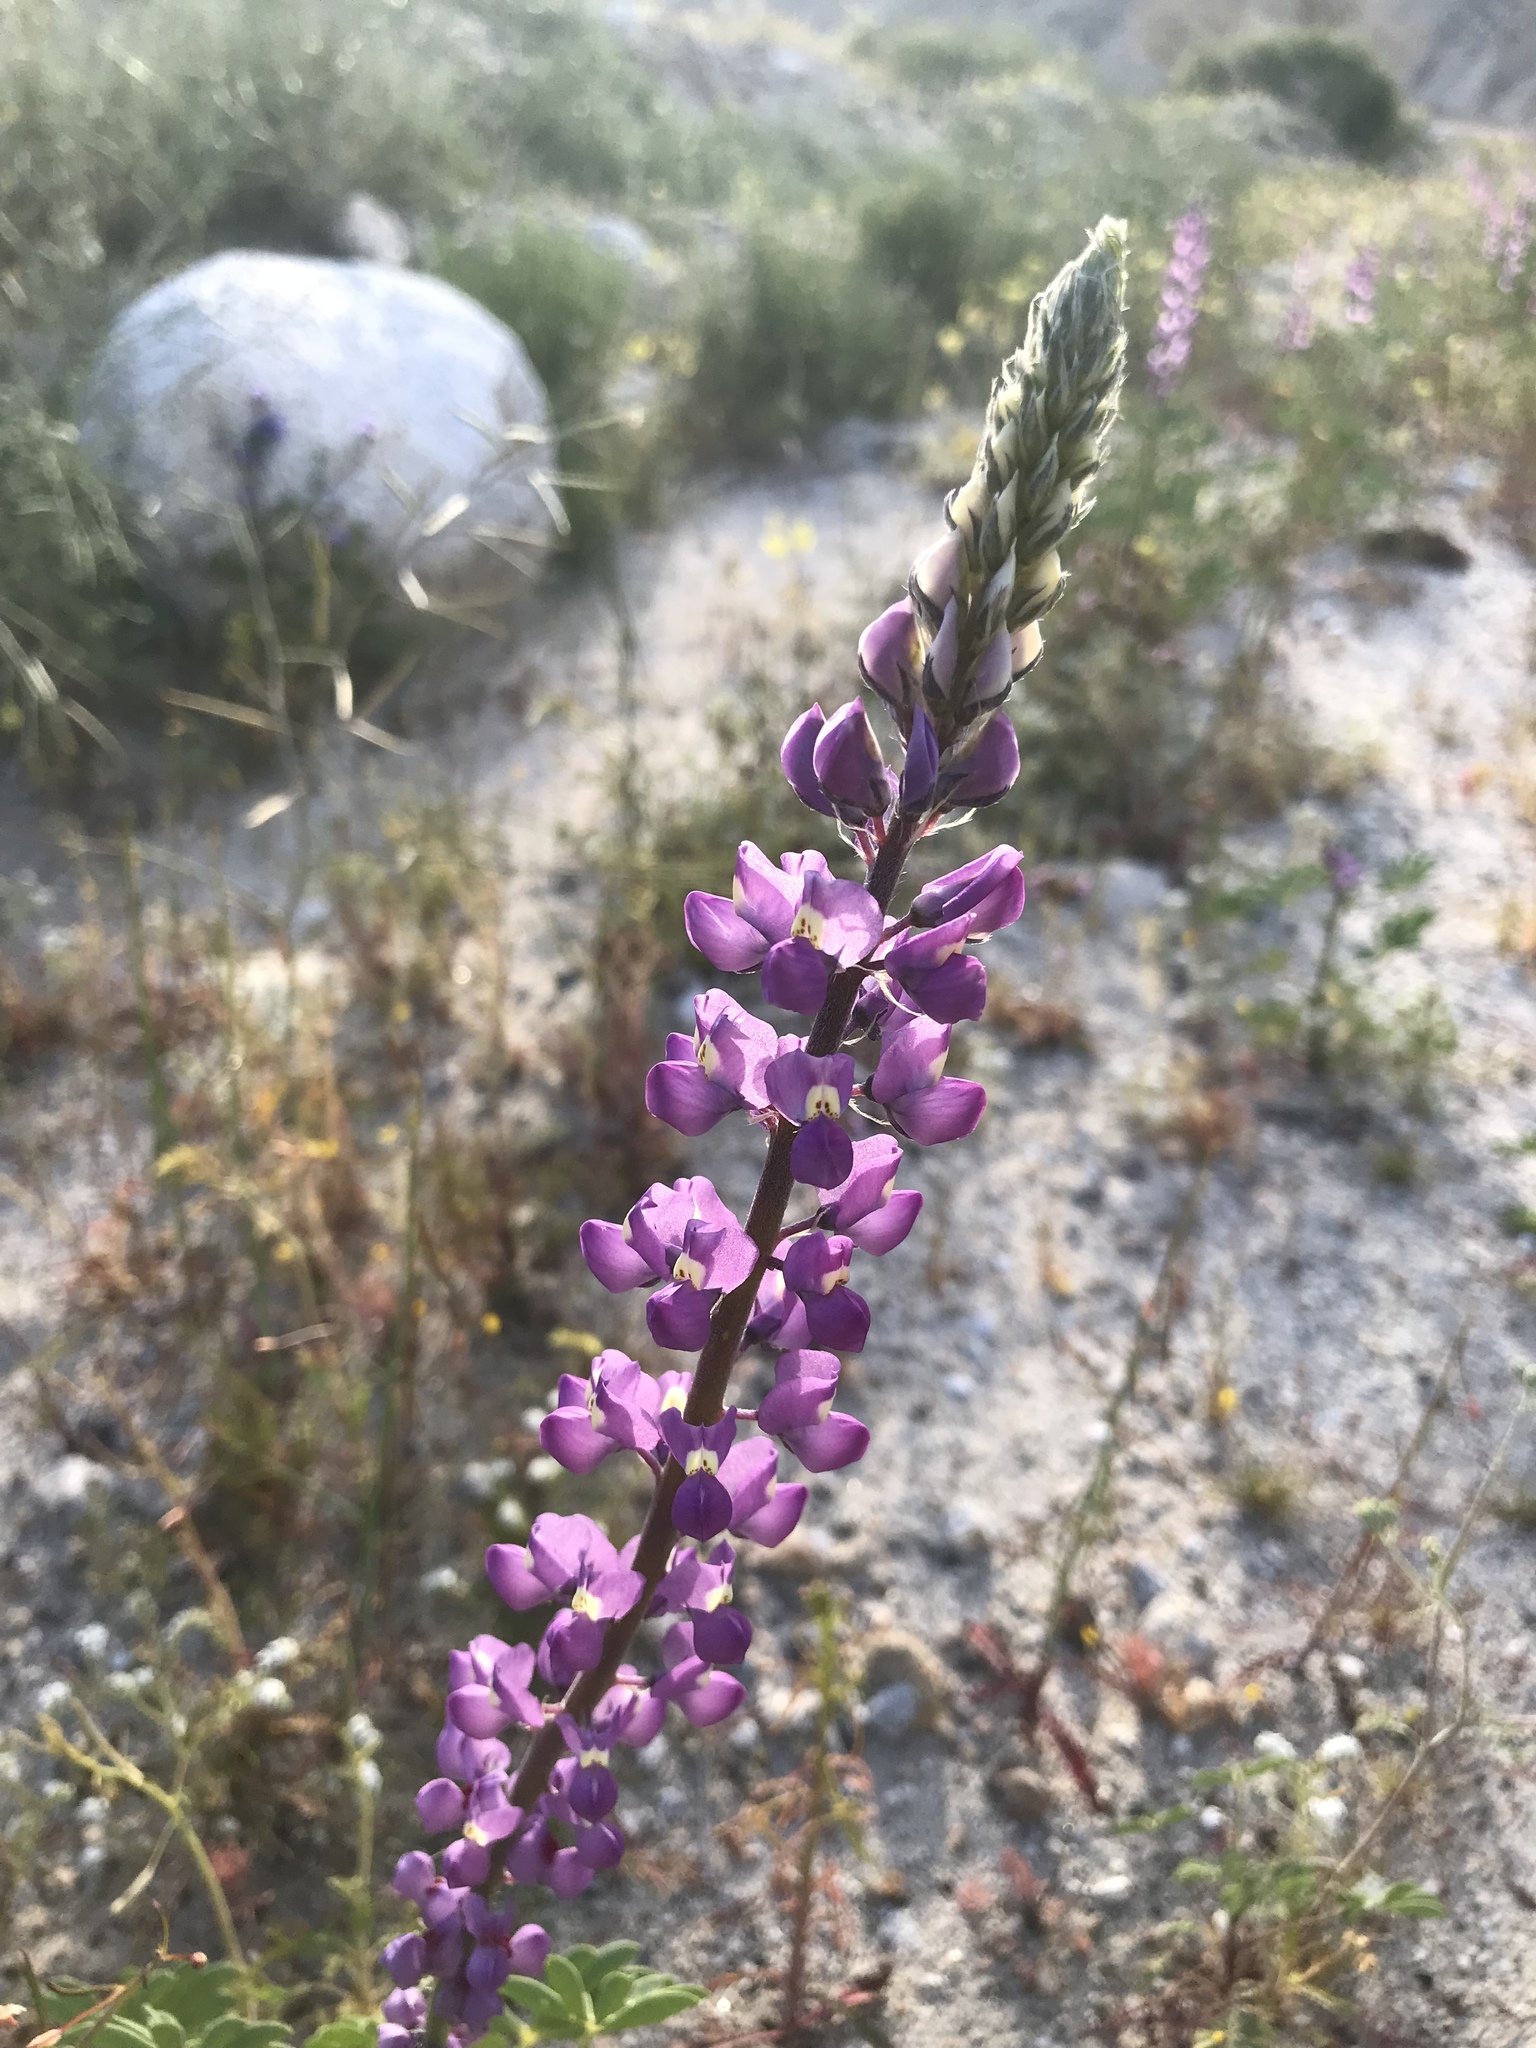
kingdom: Plantae
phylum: Tracheophyta
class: Magnoliopsida
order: Fabales
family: Fabaceae
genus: Lupinus
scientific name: Lupinus arizonicus
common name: Arizona lupine
